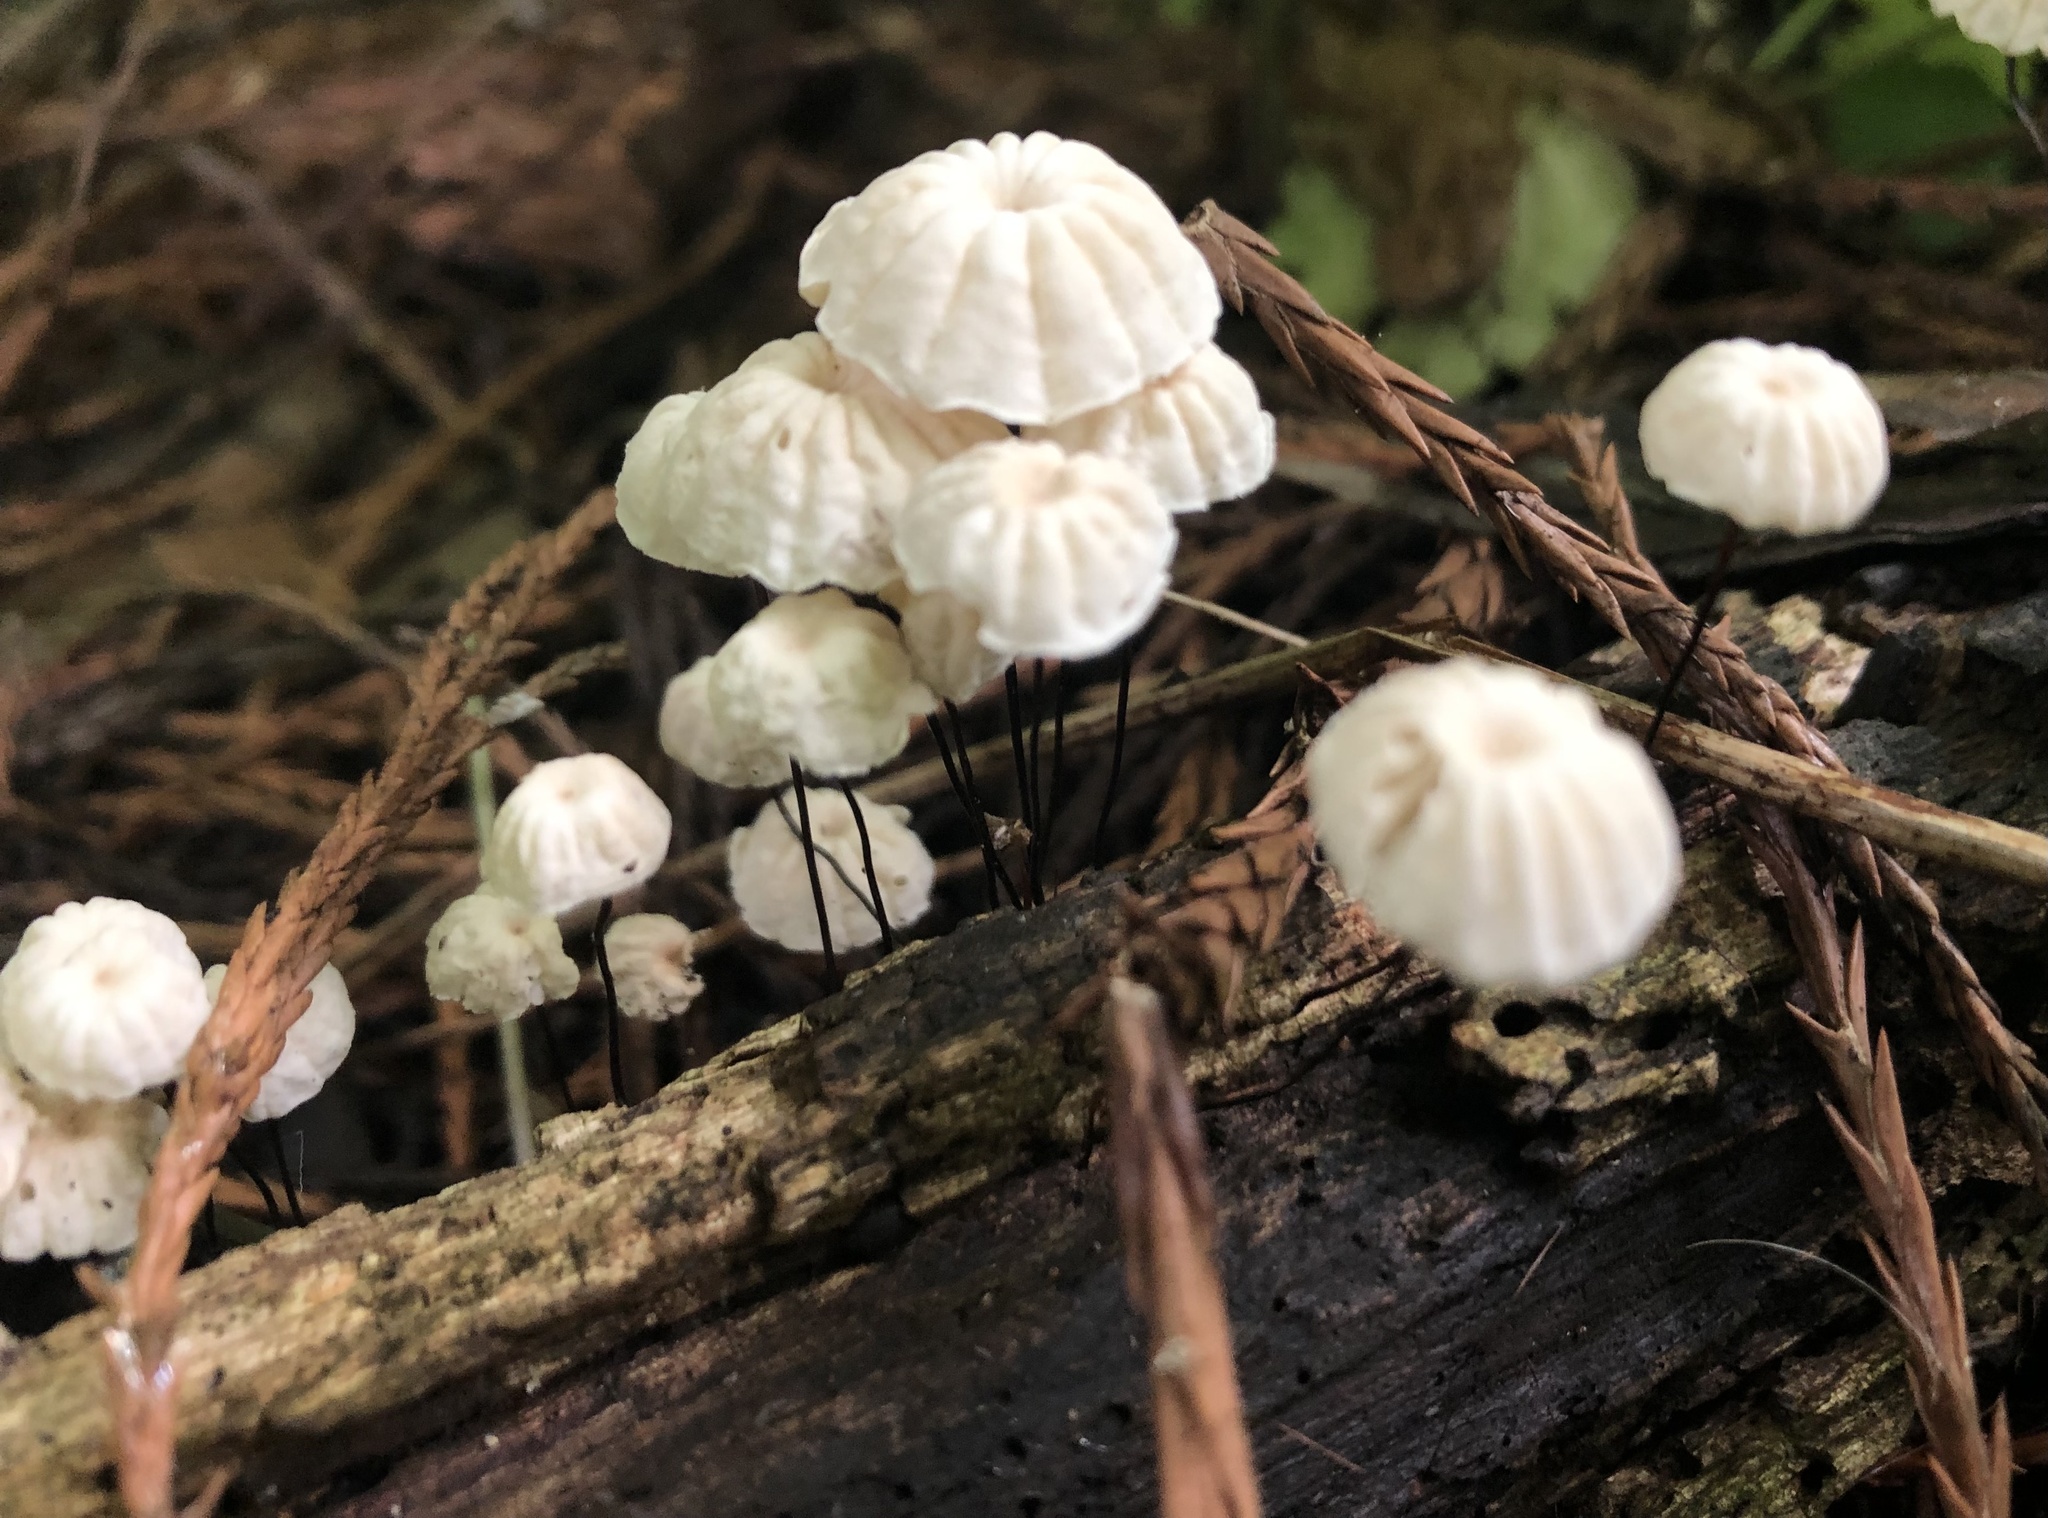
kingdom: Fungi
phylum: Basidiomycota
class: Agaricomycetes
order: Agaricales
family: Marasmiaceae
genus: Marasmius
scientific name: Marasmius rotula
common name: Collared parachute
